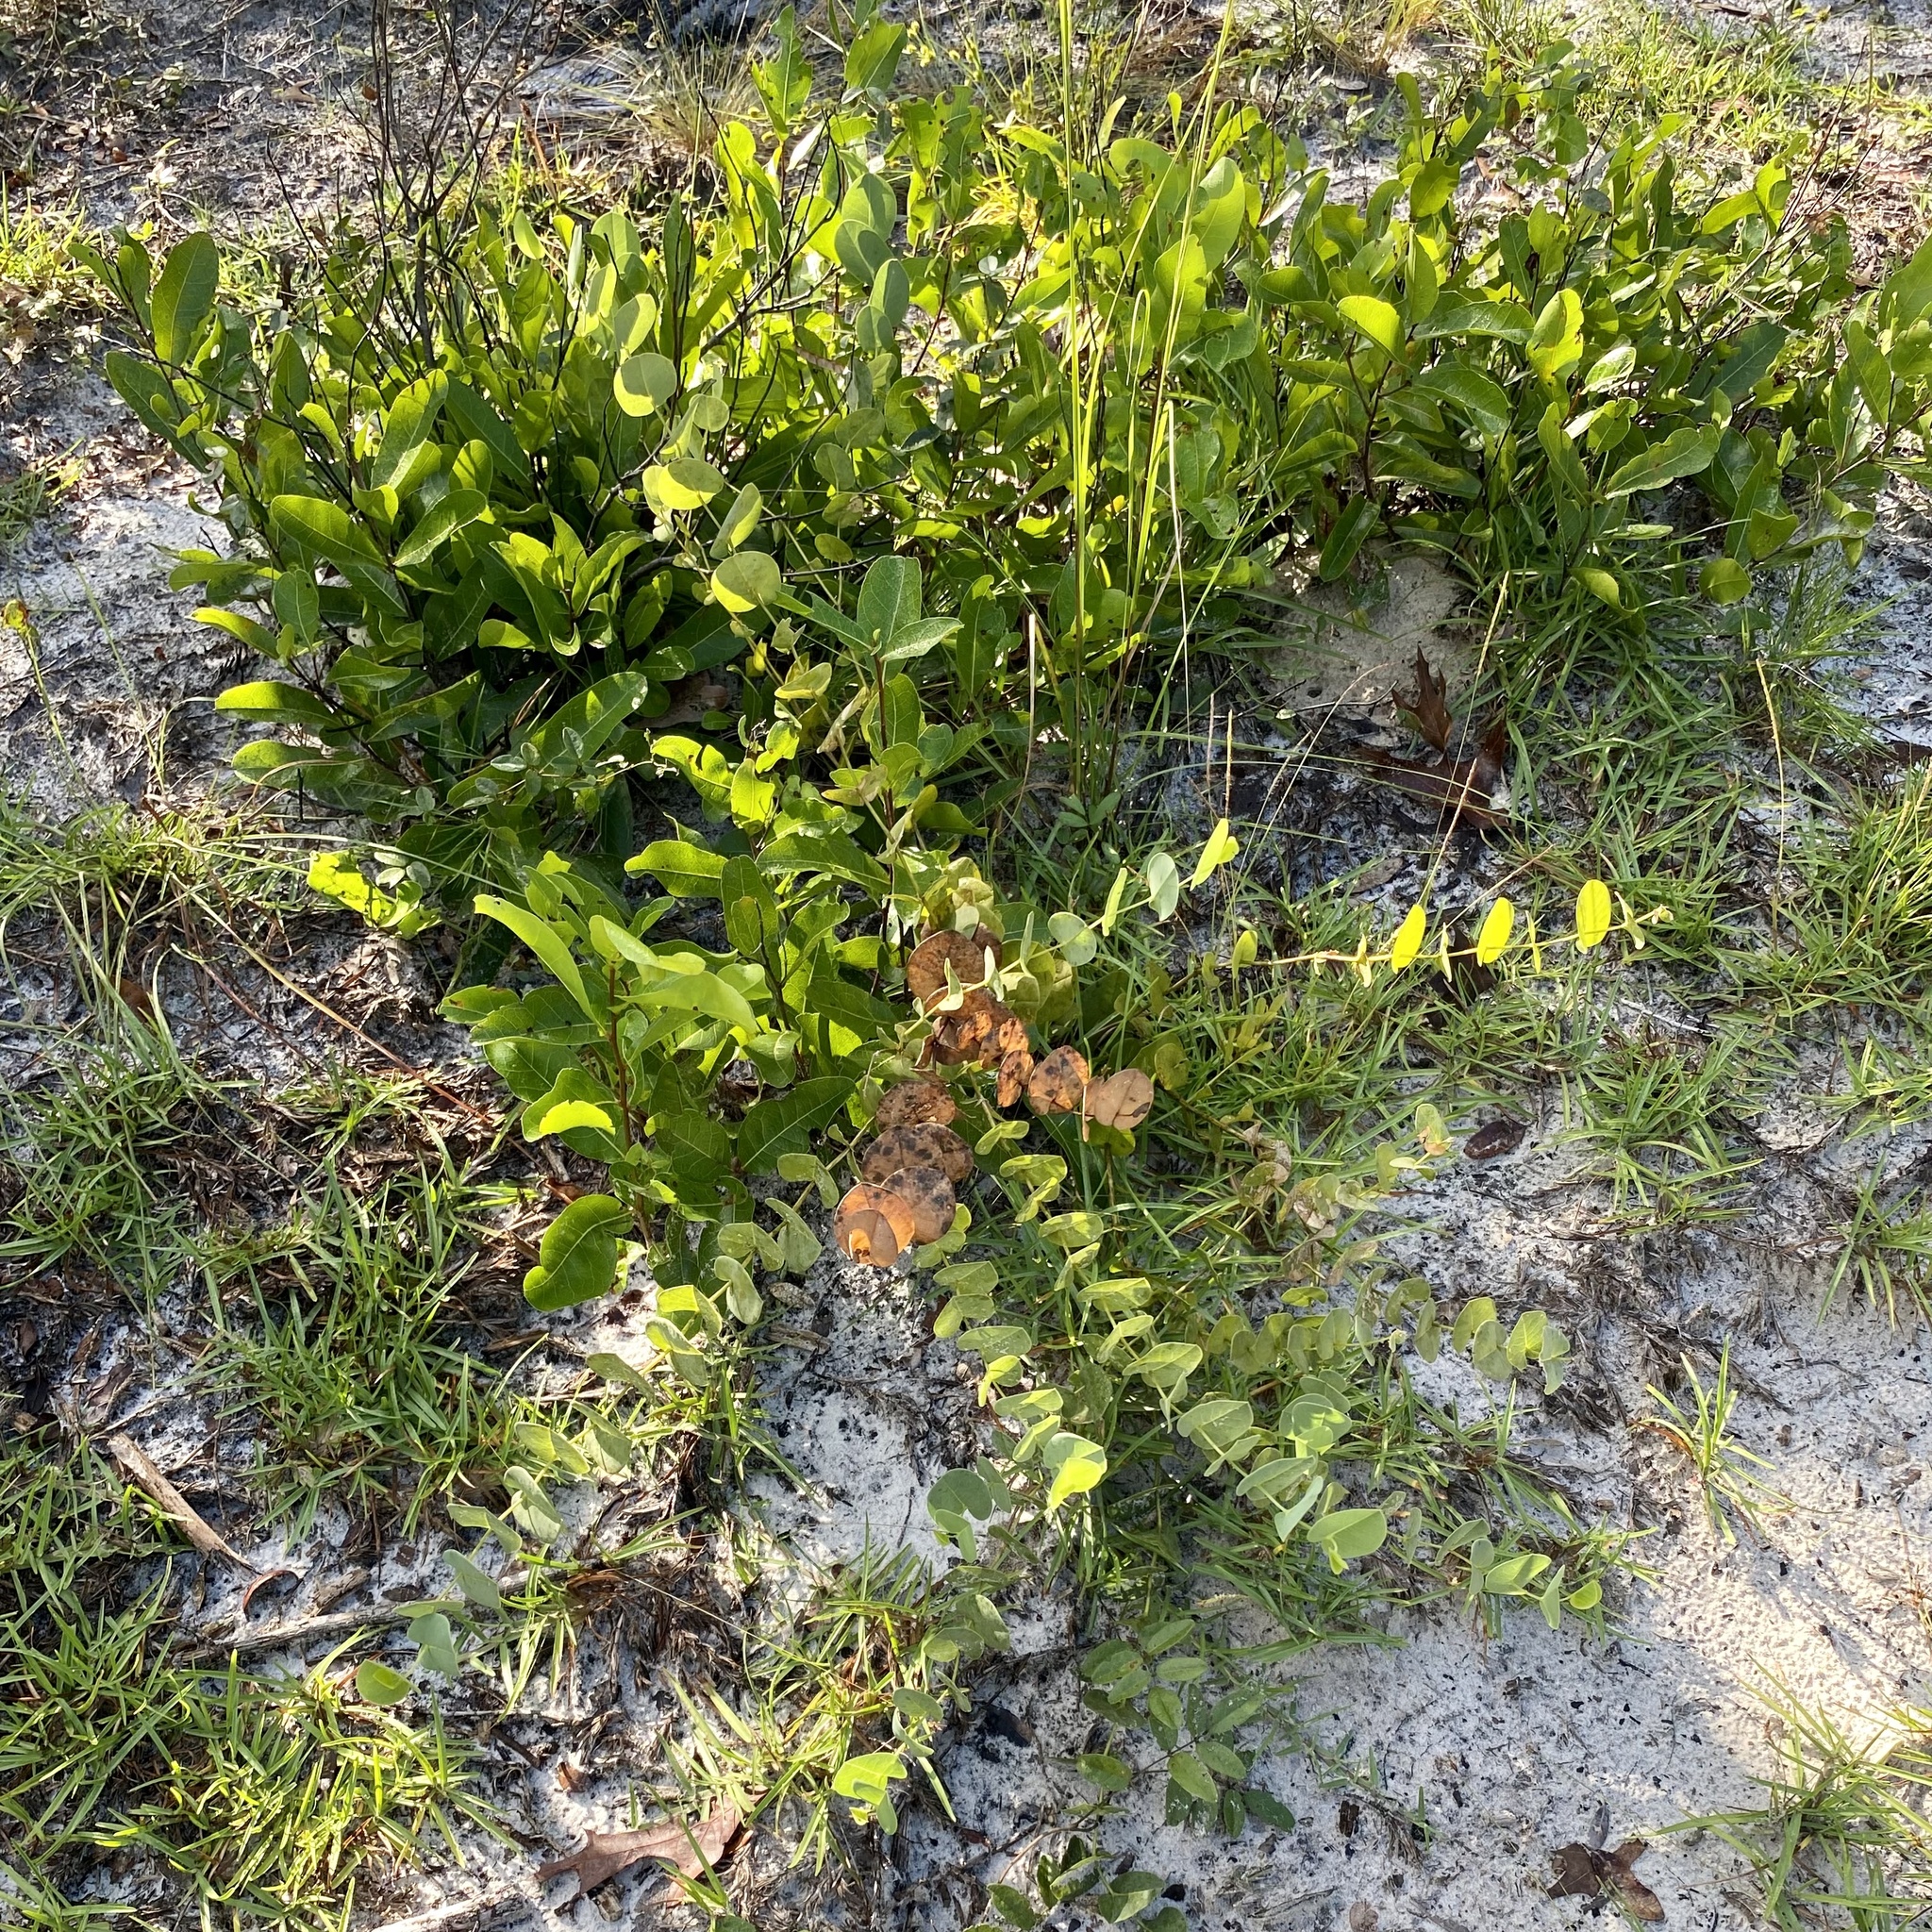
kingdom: Plantae
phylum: Tracheophyta
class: Magnoliopsida
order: Fabales
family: Fabaceae
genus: Baptisia
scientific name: Baptisia perfoliata
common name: Catbells
